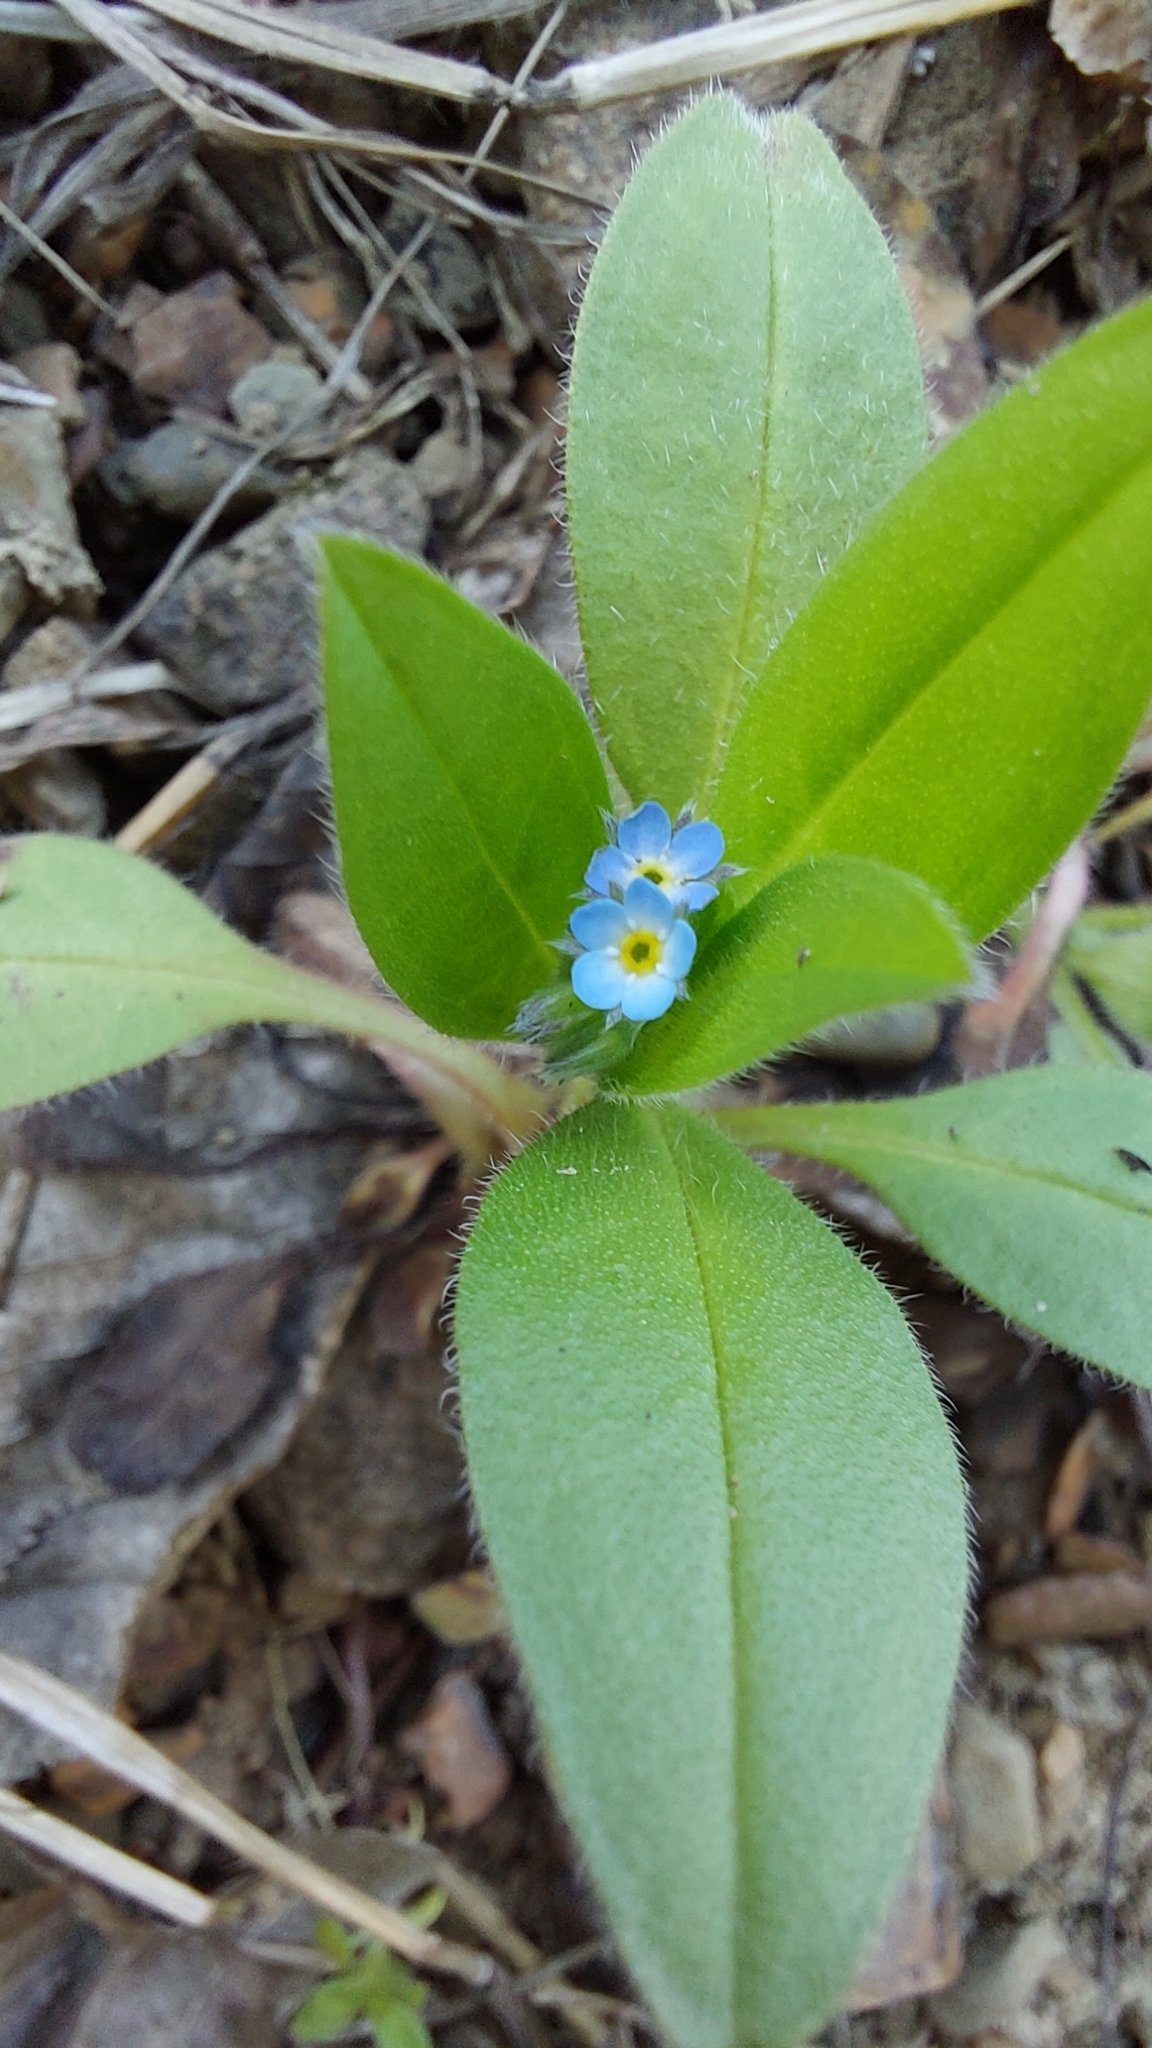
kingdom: Plantae
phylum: Tracheophyta
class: Magnoliopsida
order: Boraginales
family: Boraginaceae
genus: Myosotis
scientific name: Myosotis sparsiflora
